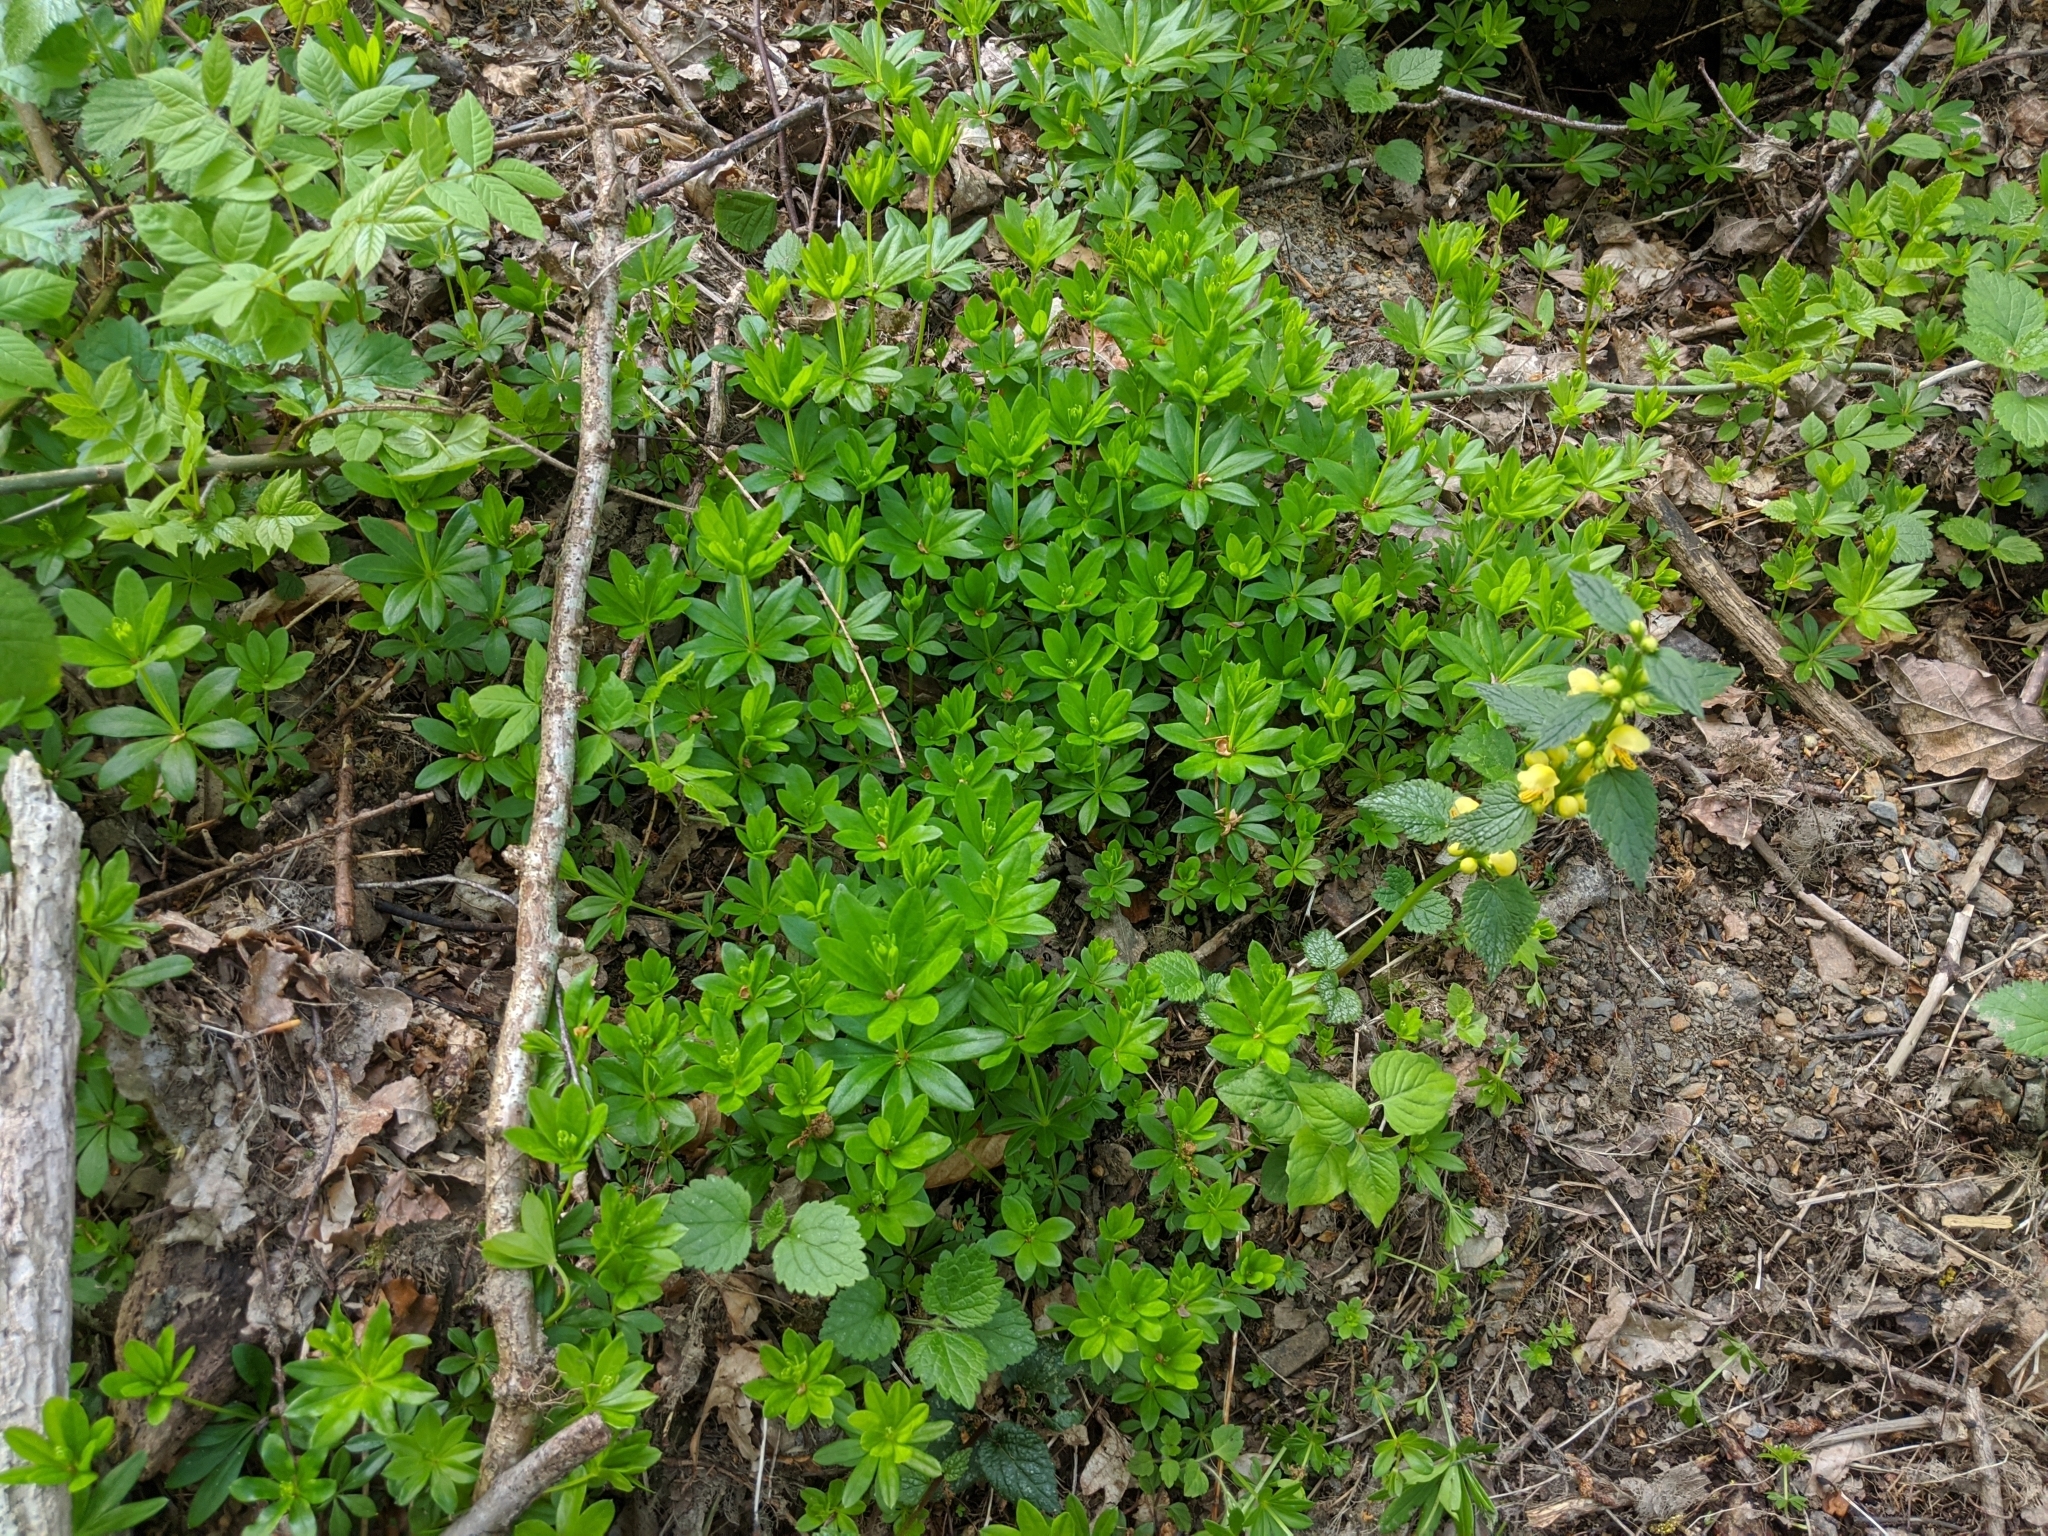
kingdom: Plantae
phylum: Tracheophyta
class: Magnoliopsida
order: Gentianales
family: Rubiaceae
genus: Galium
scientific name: Galium odoratum
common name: Sweet woodruff
